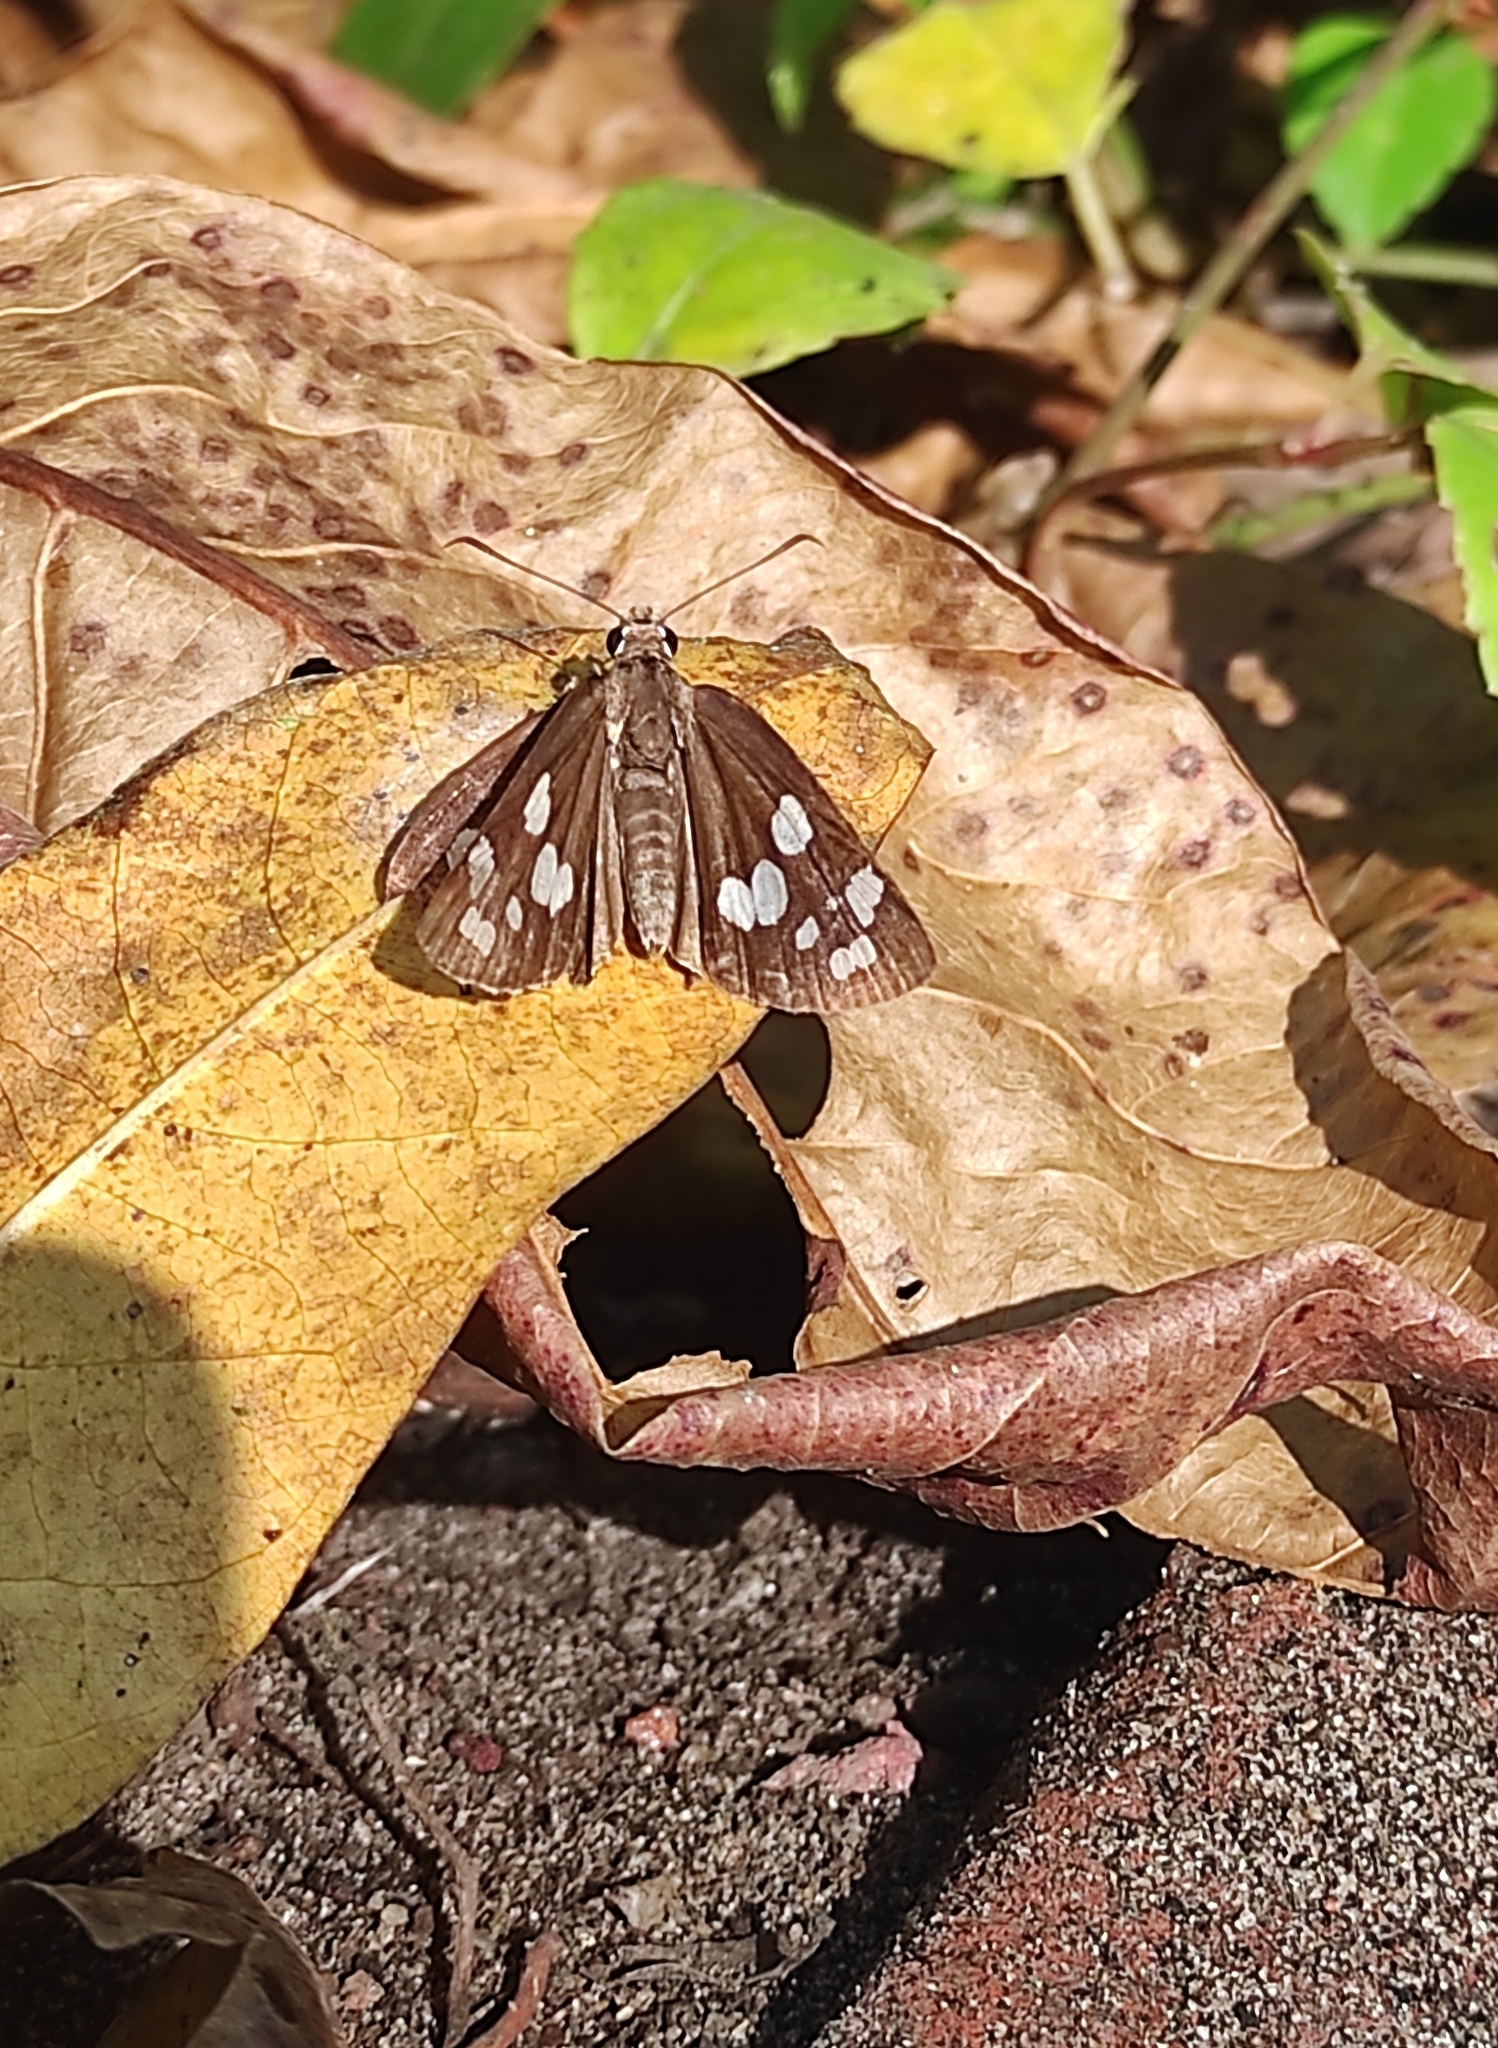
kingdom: Animalia
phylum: Arthropoda
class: Insecta
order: Lepidoptera
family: Hesperiidae
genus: Udaspes
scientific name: Udaspes folus
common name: Grass demon
